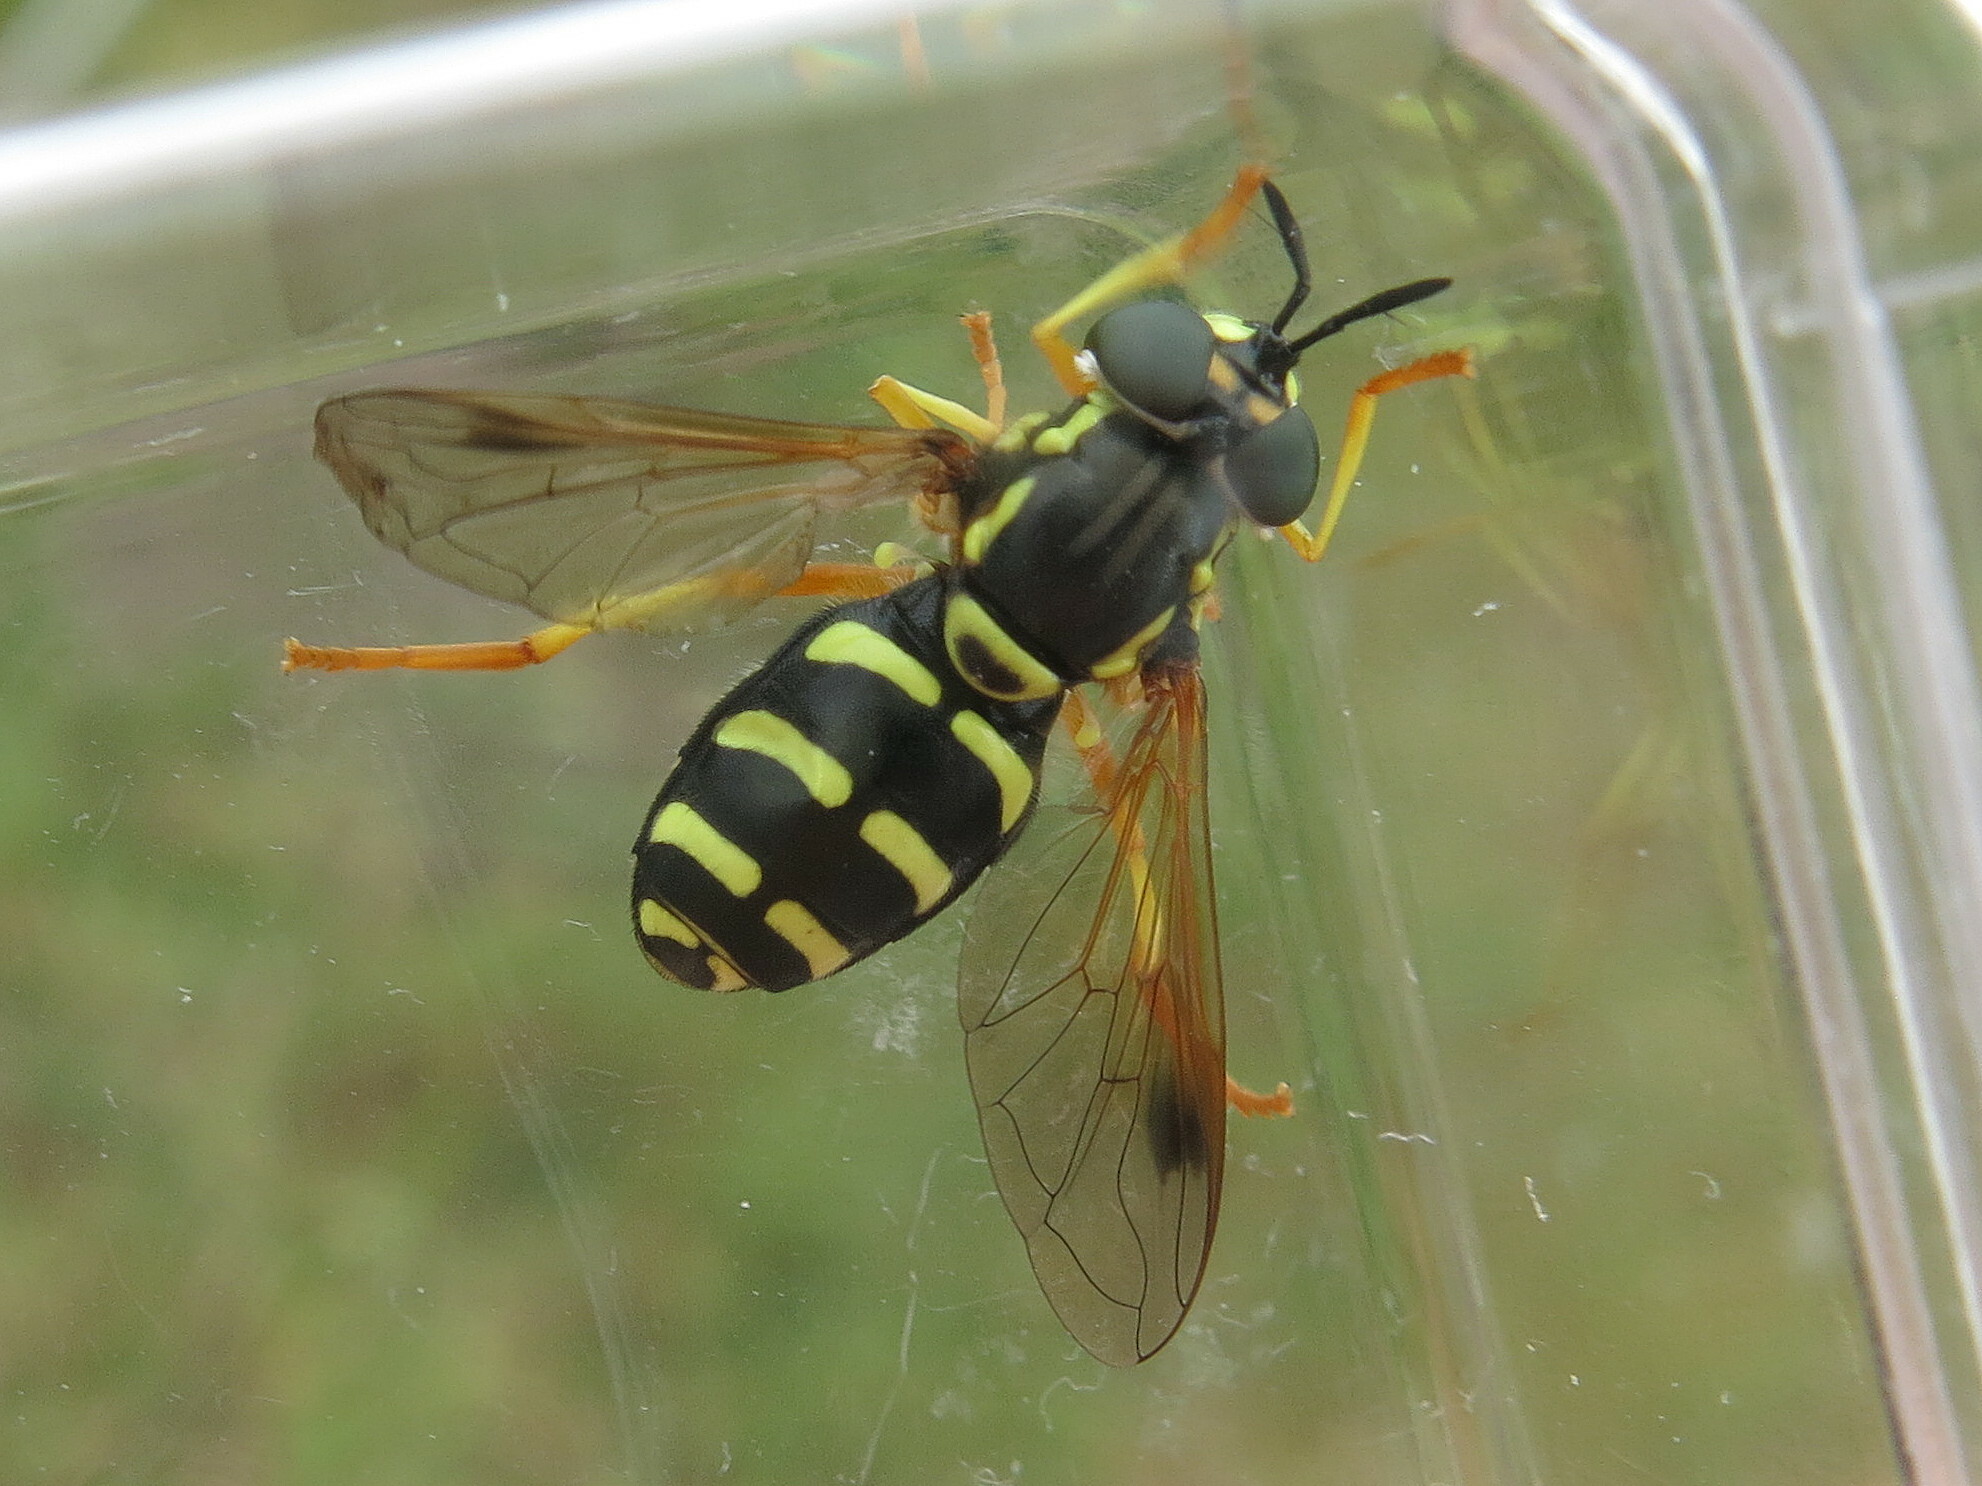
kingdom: Animalia
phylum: Arthropoda
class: Insecta
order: Diptera
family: Syrphidae
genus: Chrysotoxum
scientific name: Chrysotoxum festivum
